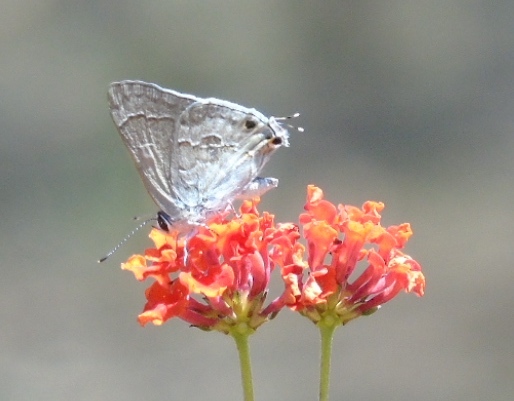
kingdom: Animalia
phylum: Arthropoda
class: Insecta
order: Lepidoptera
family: Lycaenidae
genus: Strymon
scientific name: Strymon
